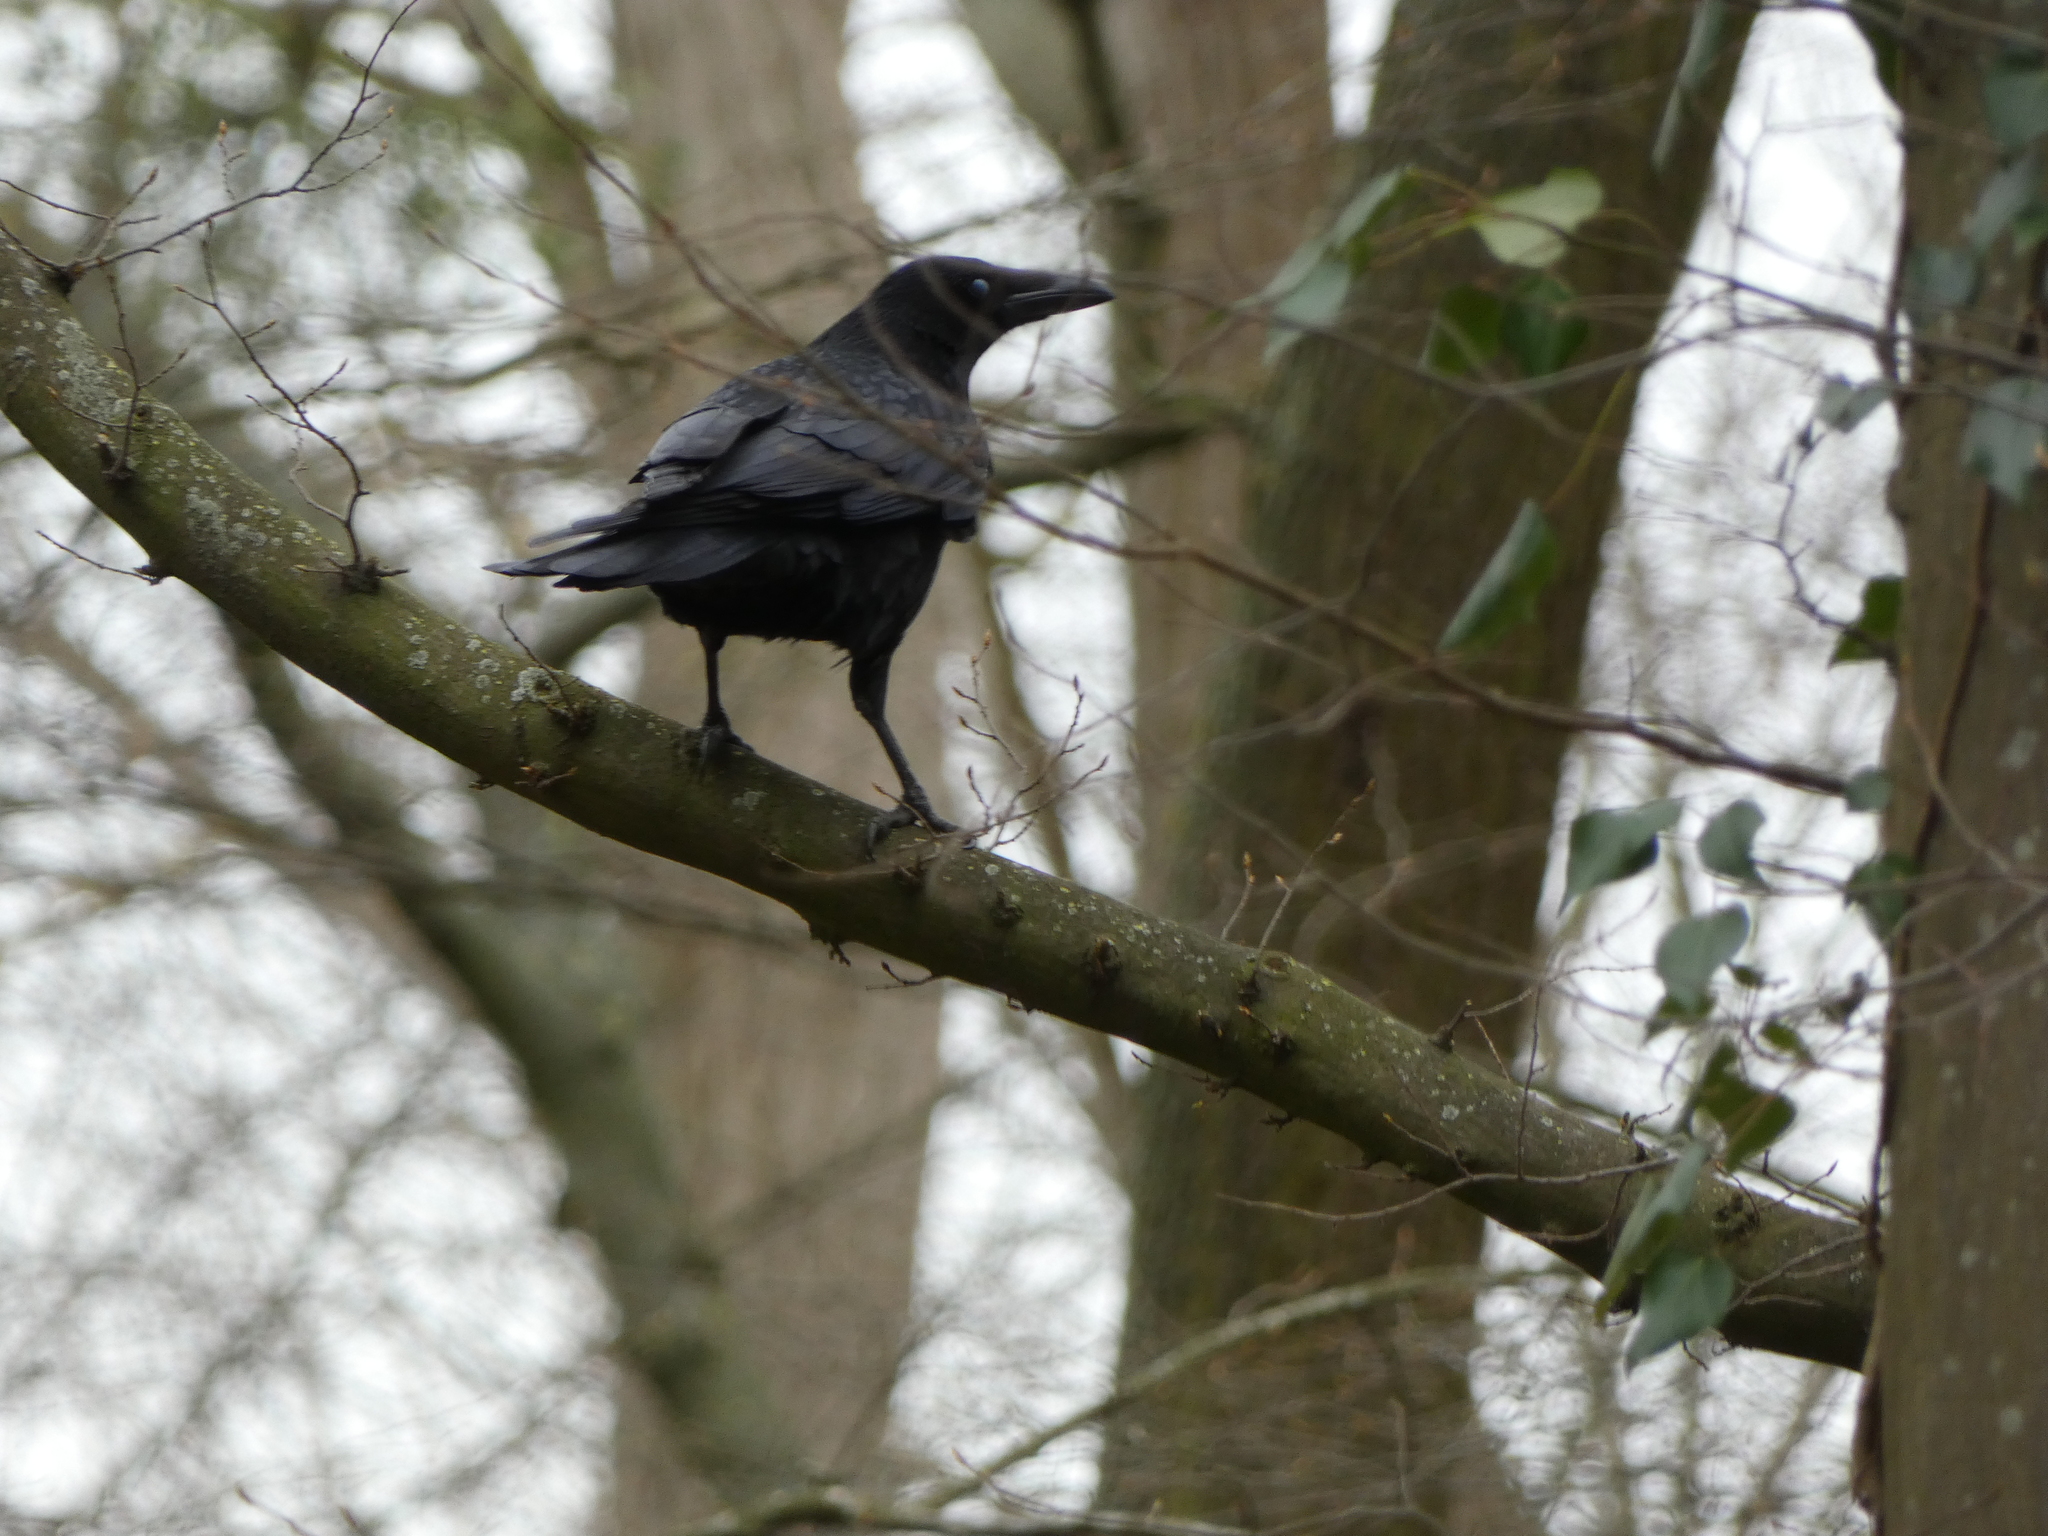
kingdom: Animalia
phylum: Chordata
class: Aves
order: Passeriformes
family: Corvidae
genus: Corvus
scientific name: Corvus corone
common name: Carrion crow
